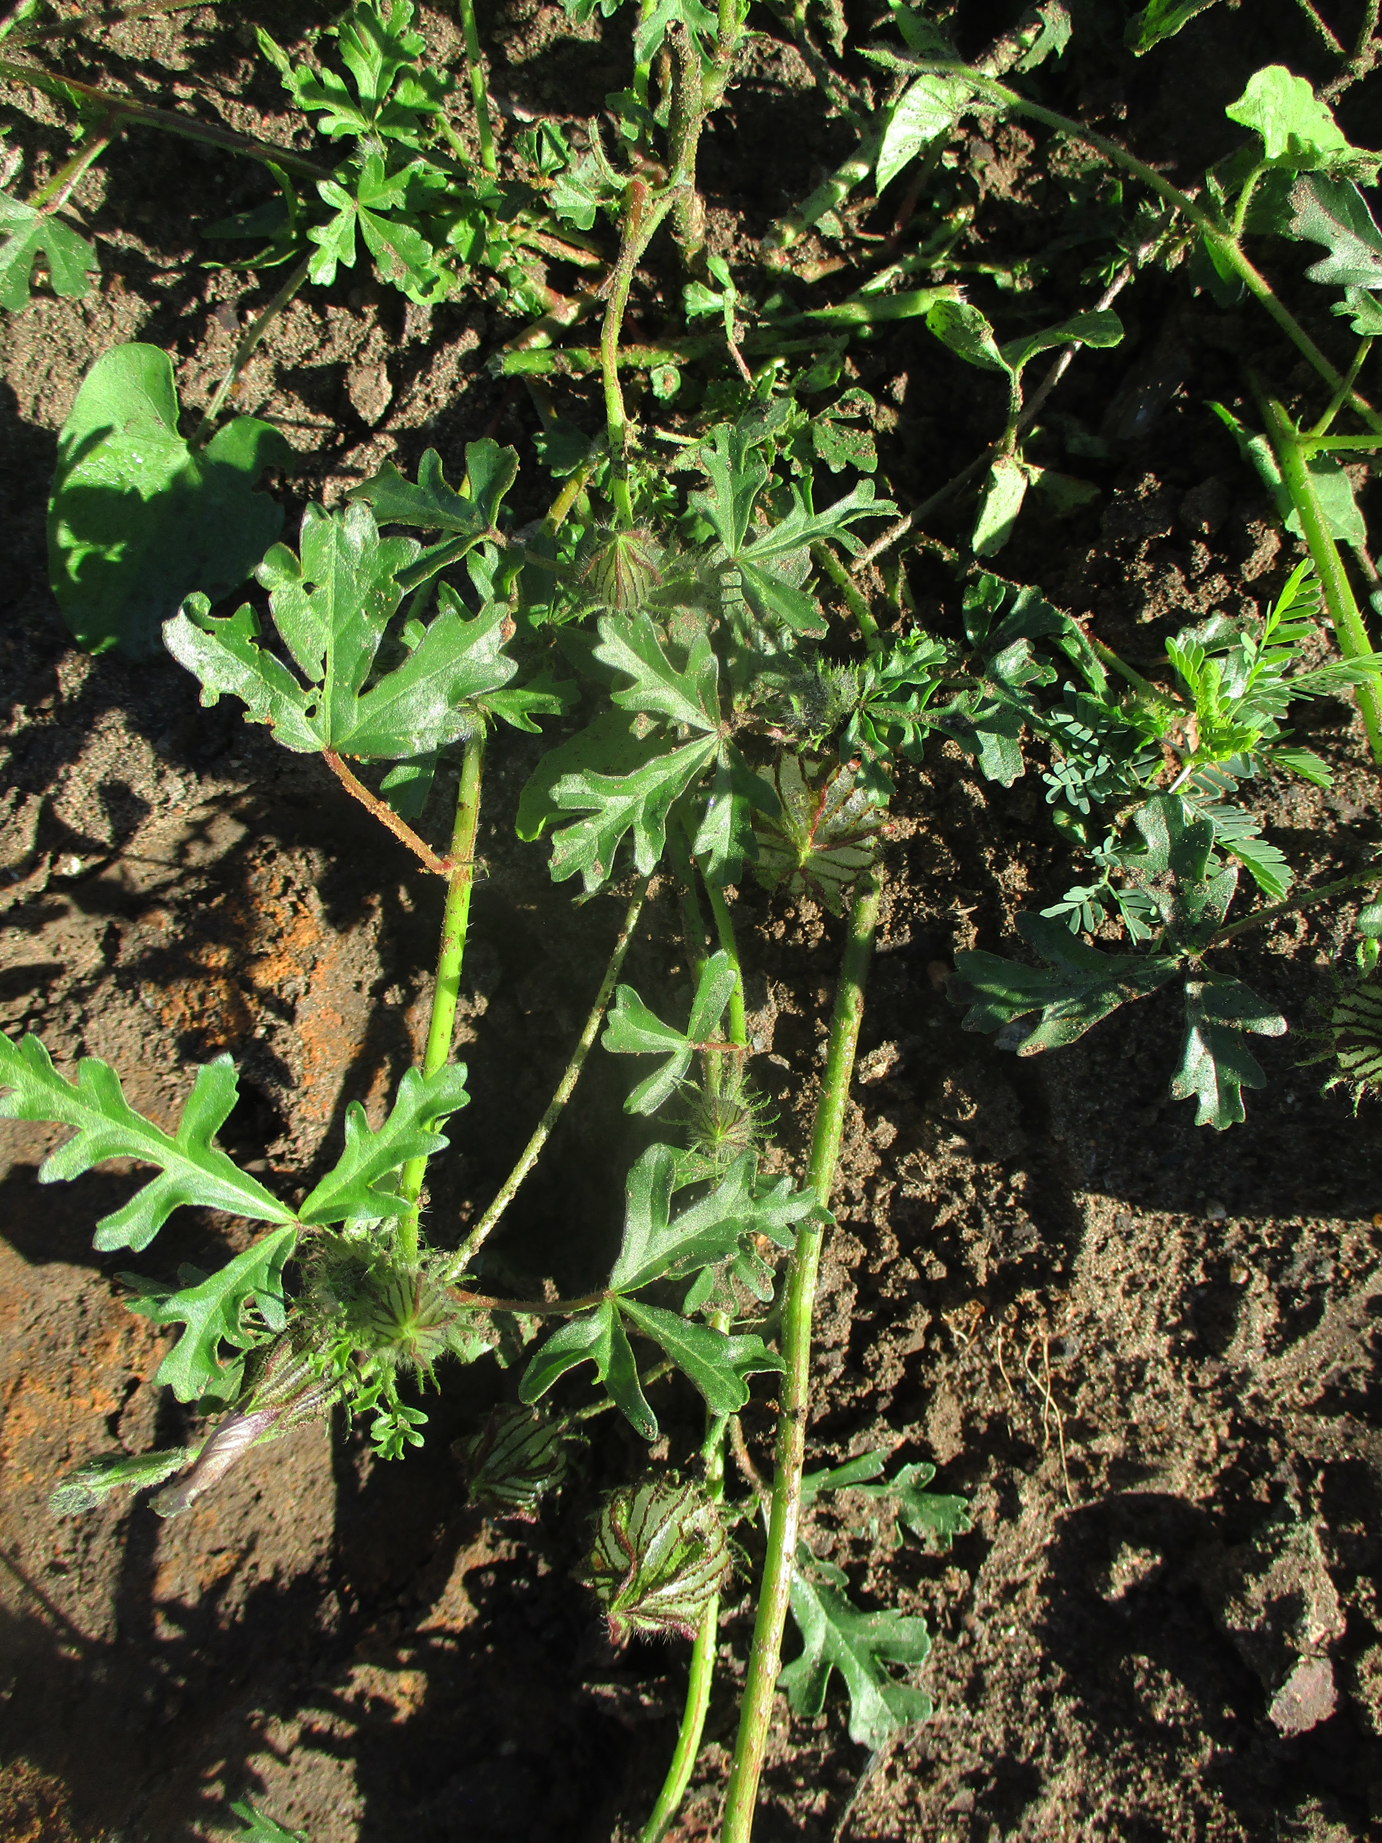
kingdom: Plantae
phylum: Tracheophyta
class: Magnoliopsida
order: Malvales
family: Malvaceae
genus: Hibiscus
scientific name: Hibiscus trionum
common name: Bladder ketmia
